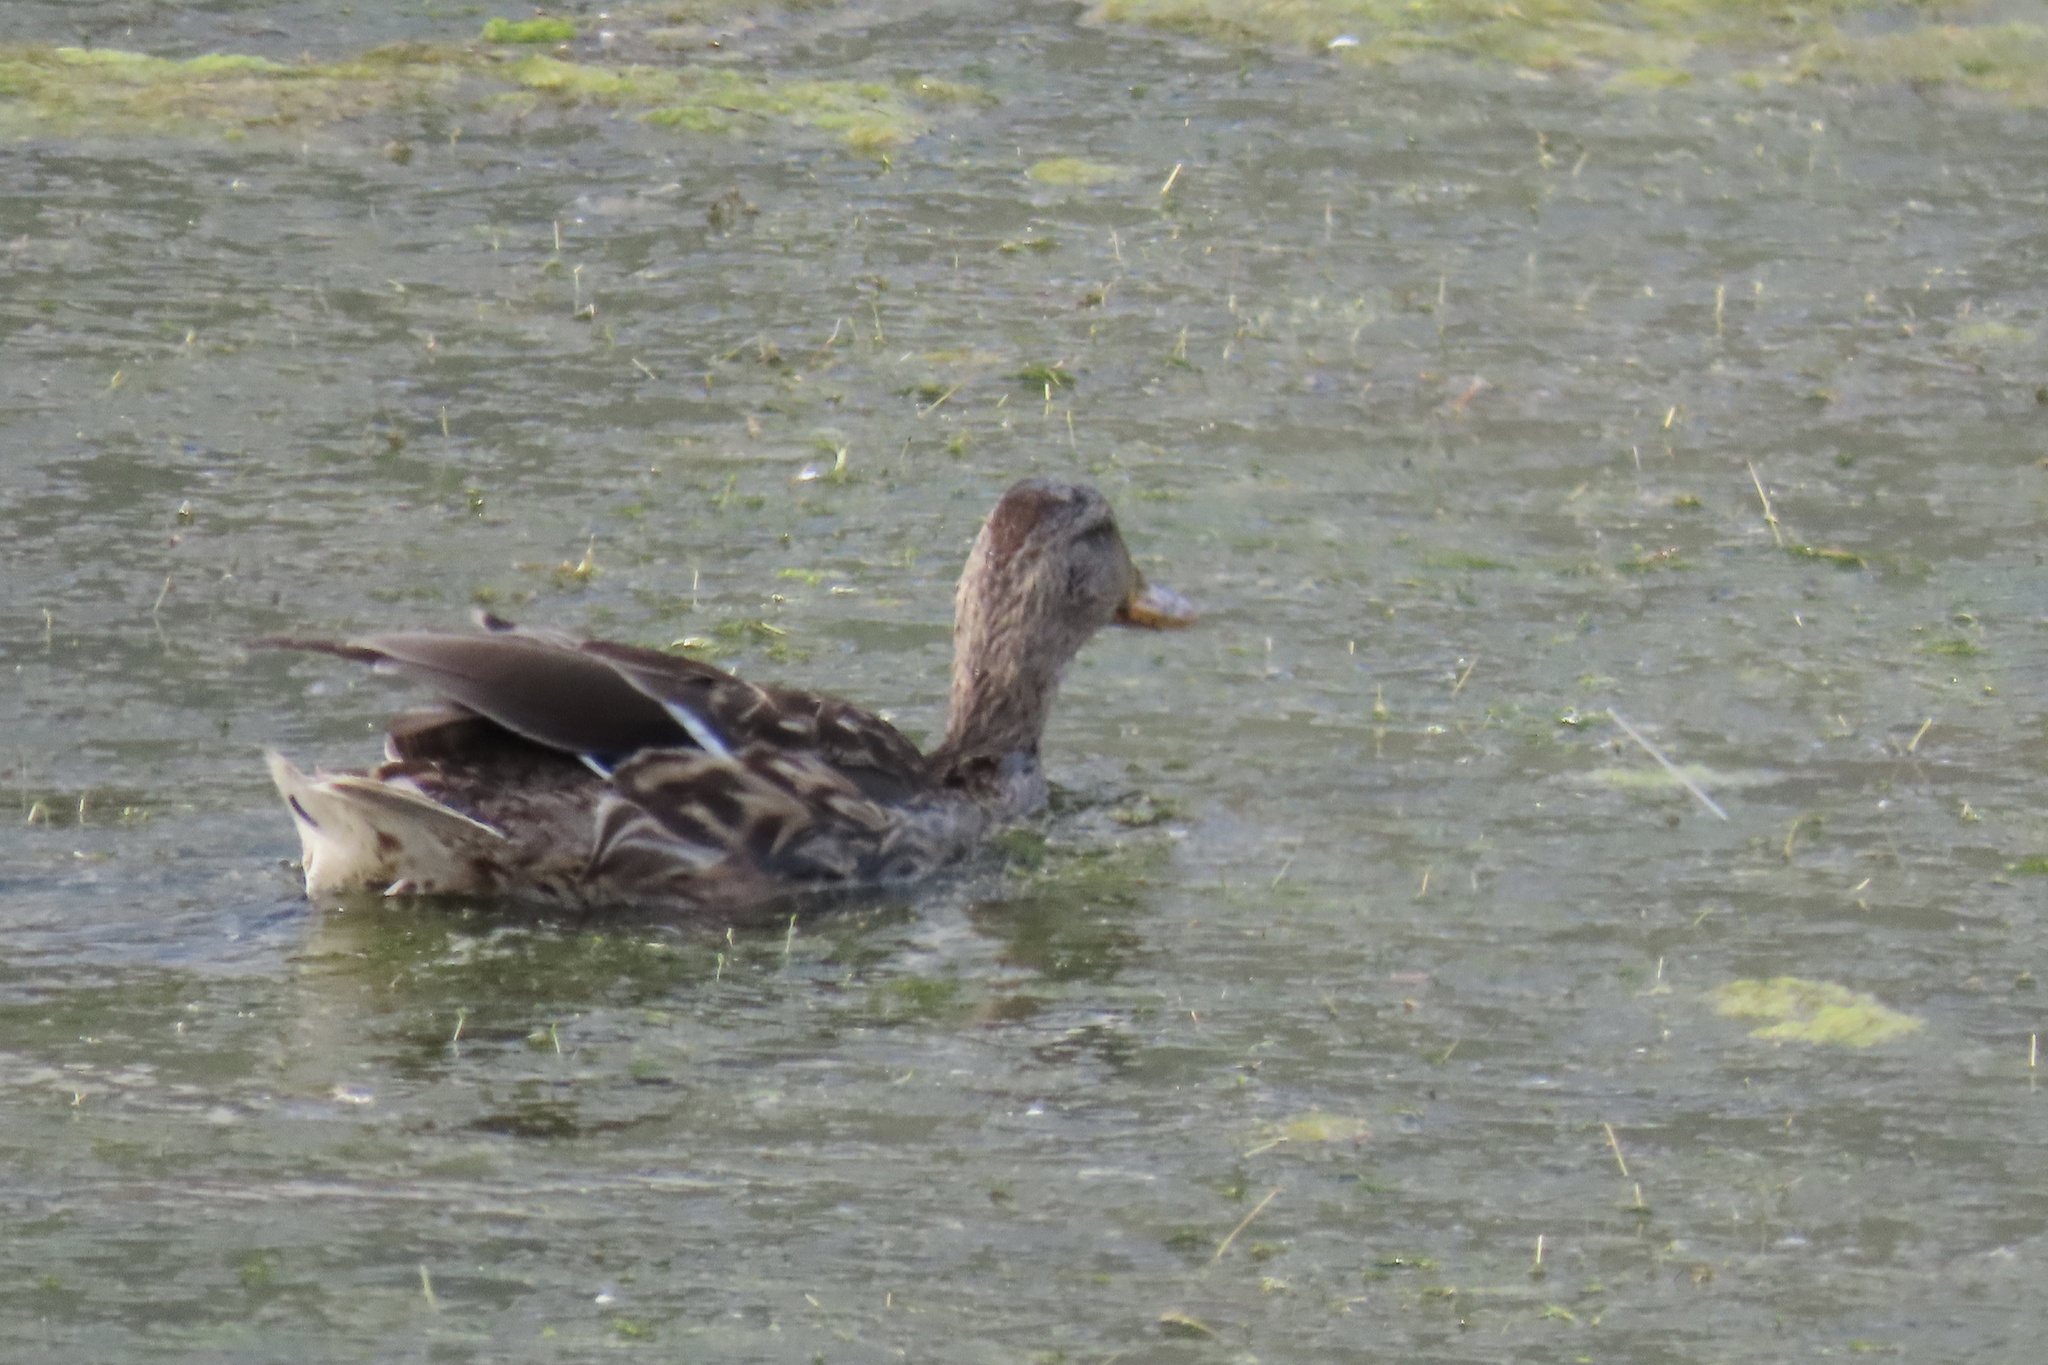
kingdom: Animalia
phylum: Chordata
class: Aves
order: Anseriformes
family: Anatidae
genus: Mareca
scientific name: Mareca strepera
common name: Gadwall
